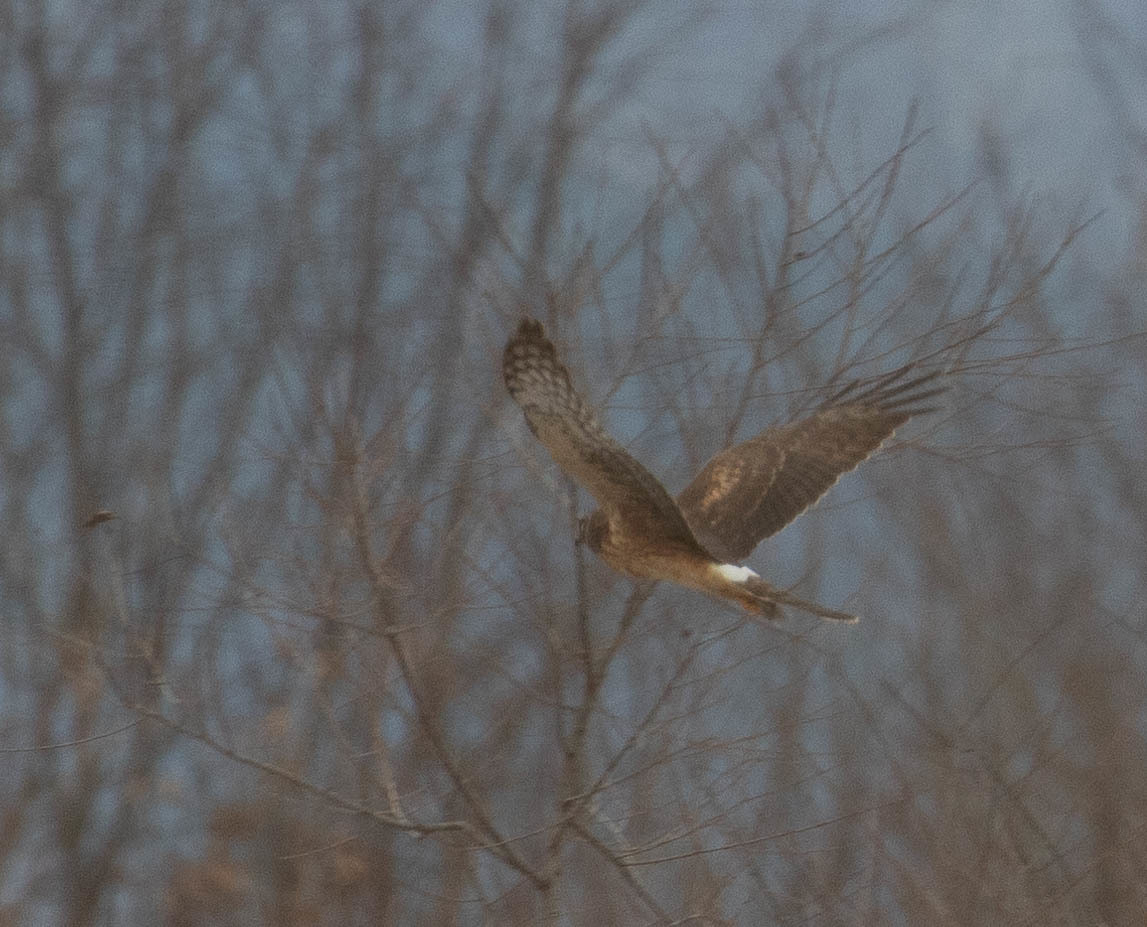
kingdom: Animalia
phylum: Chordata
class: Aves
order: Accipitriformes
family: Accipitridae
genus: Circus
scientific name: Circus cyaneus
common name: Hen harrier
